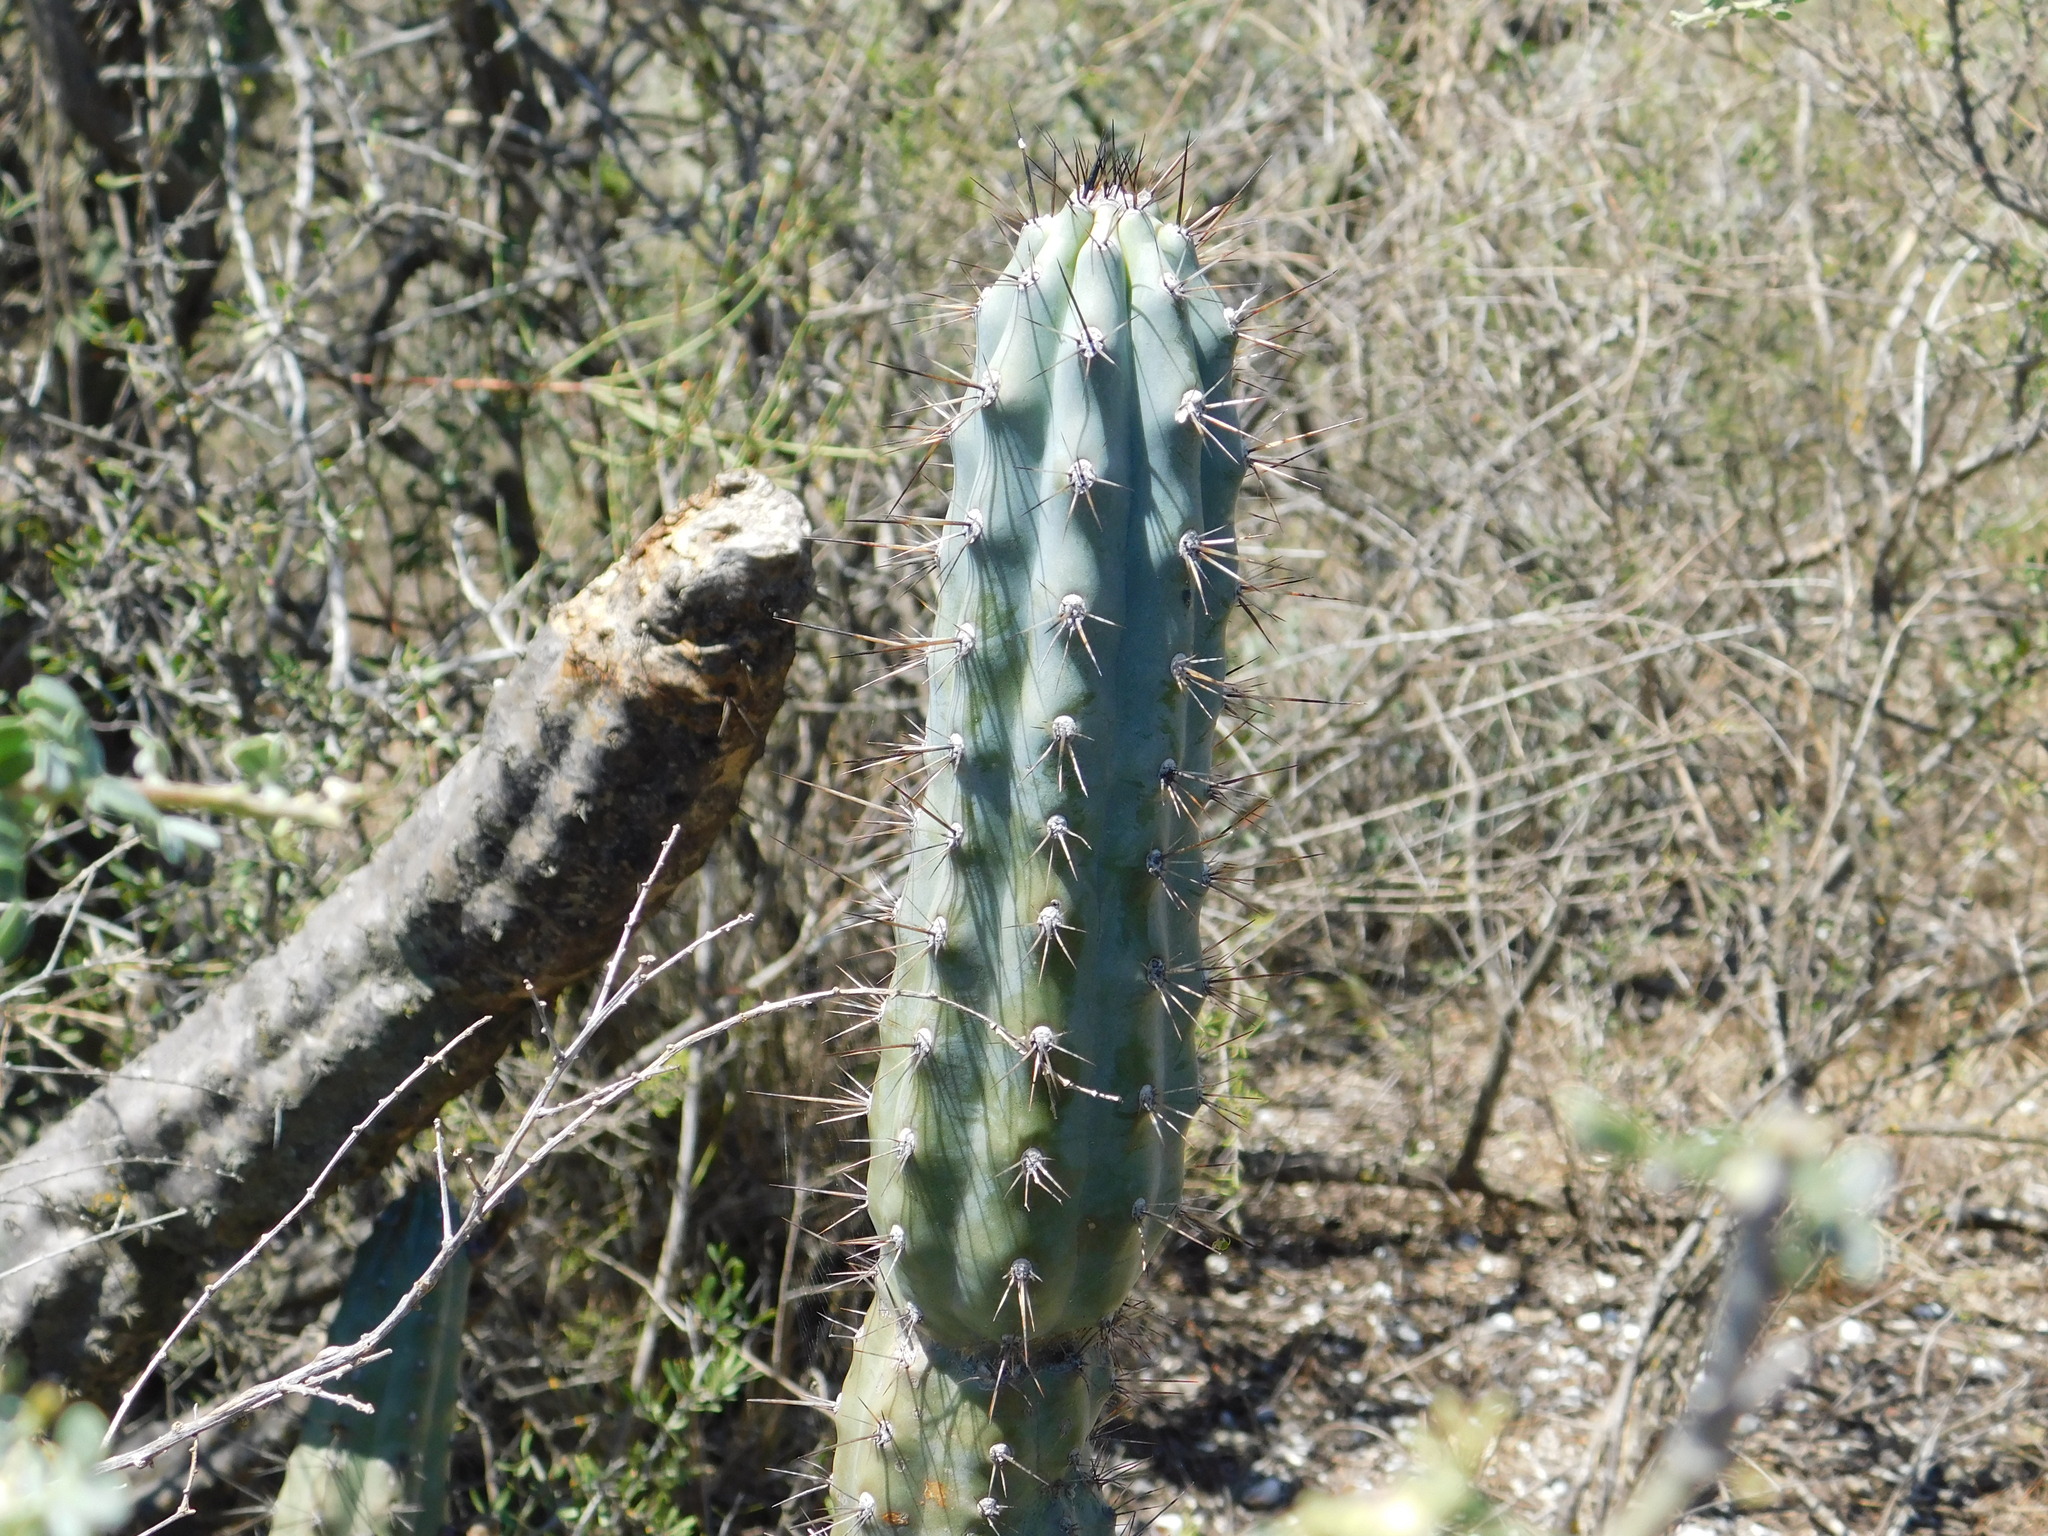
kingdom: Plantae
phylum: Tracheophyta
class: Magnoliopsida
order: Caryophyllales
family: Cactaceae
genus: Cereus
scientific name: Cereus aethiops
